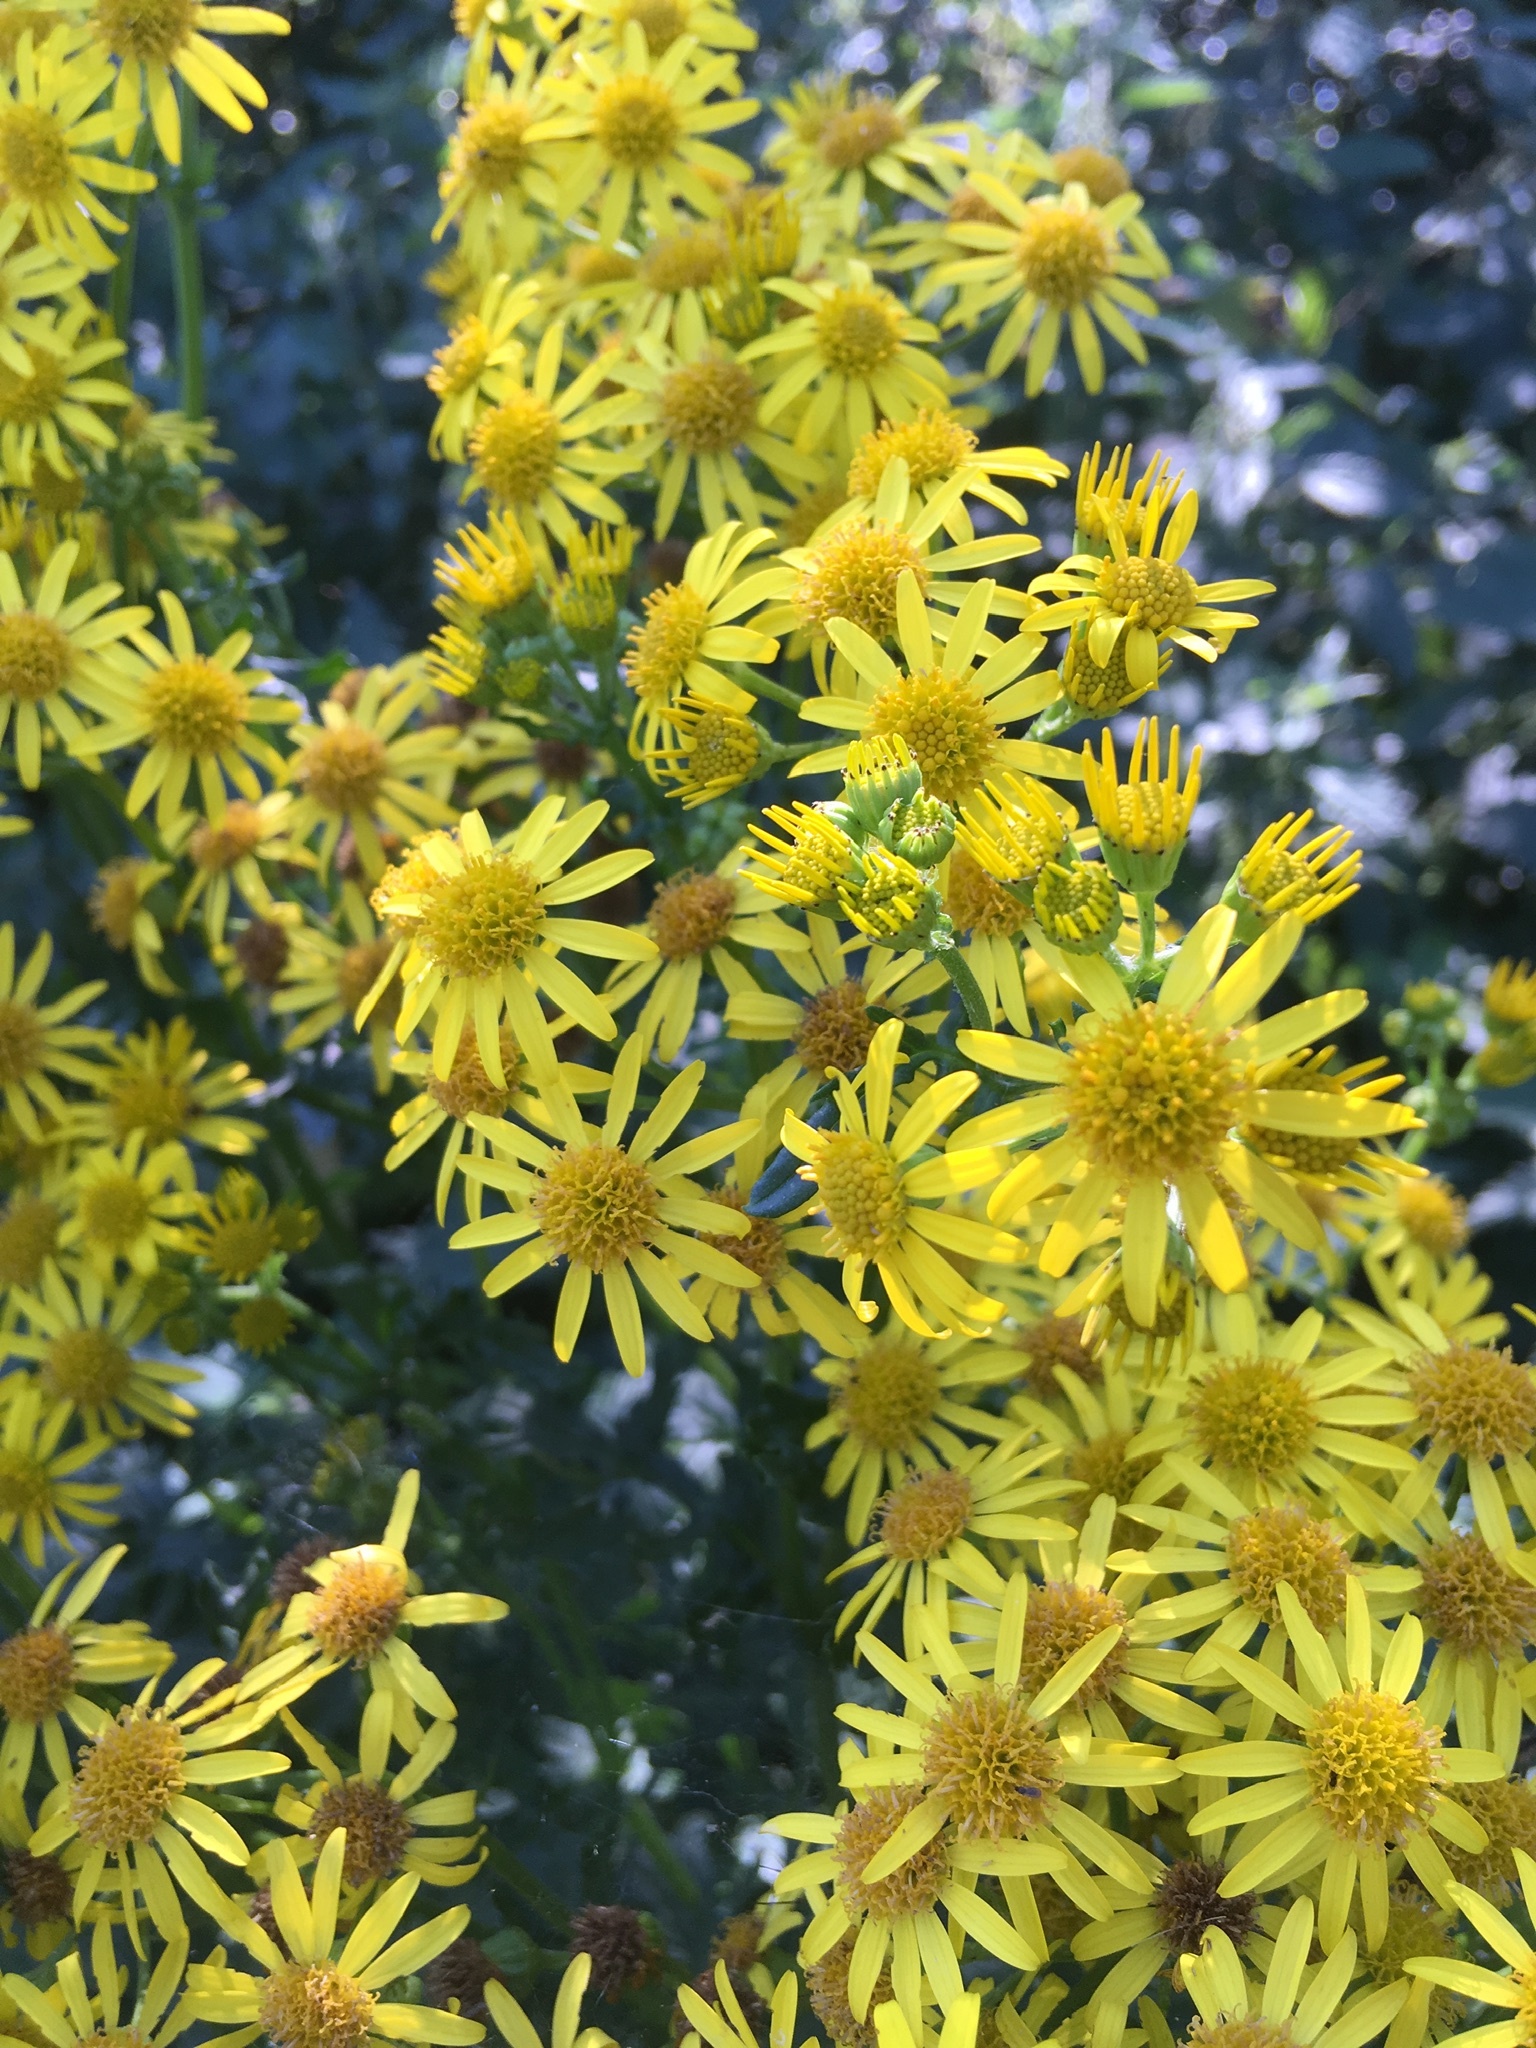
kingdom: Plantae
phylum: Tracheophyta
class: Magnoliopsida
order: Asterales
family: Asteraceae
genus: Jacobaea
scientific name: Jacobaea vulgaris
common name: Stinking willie
